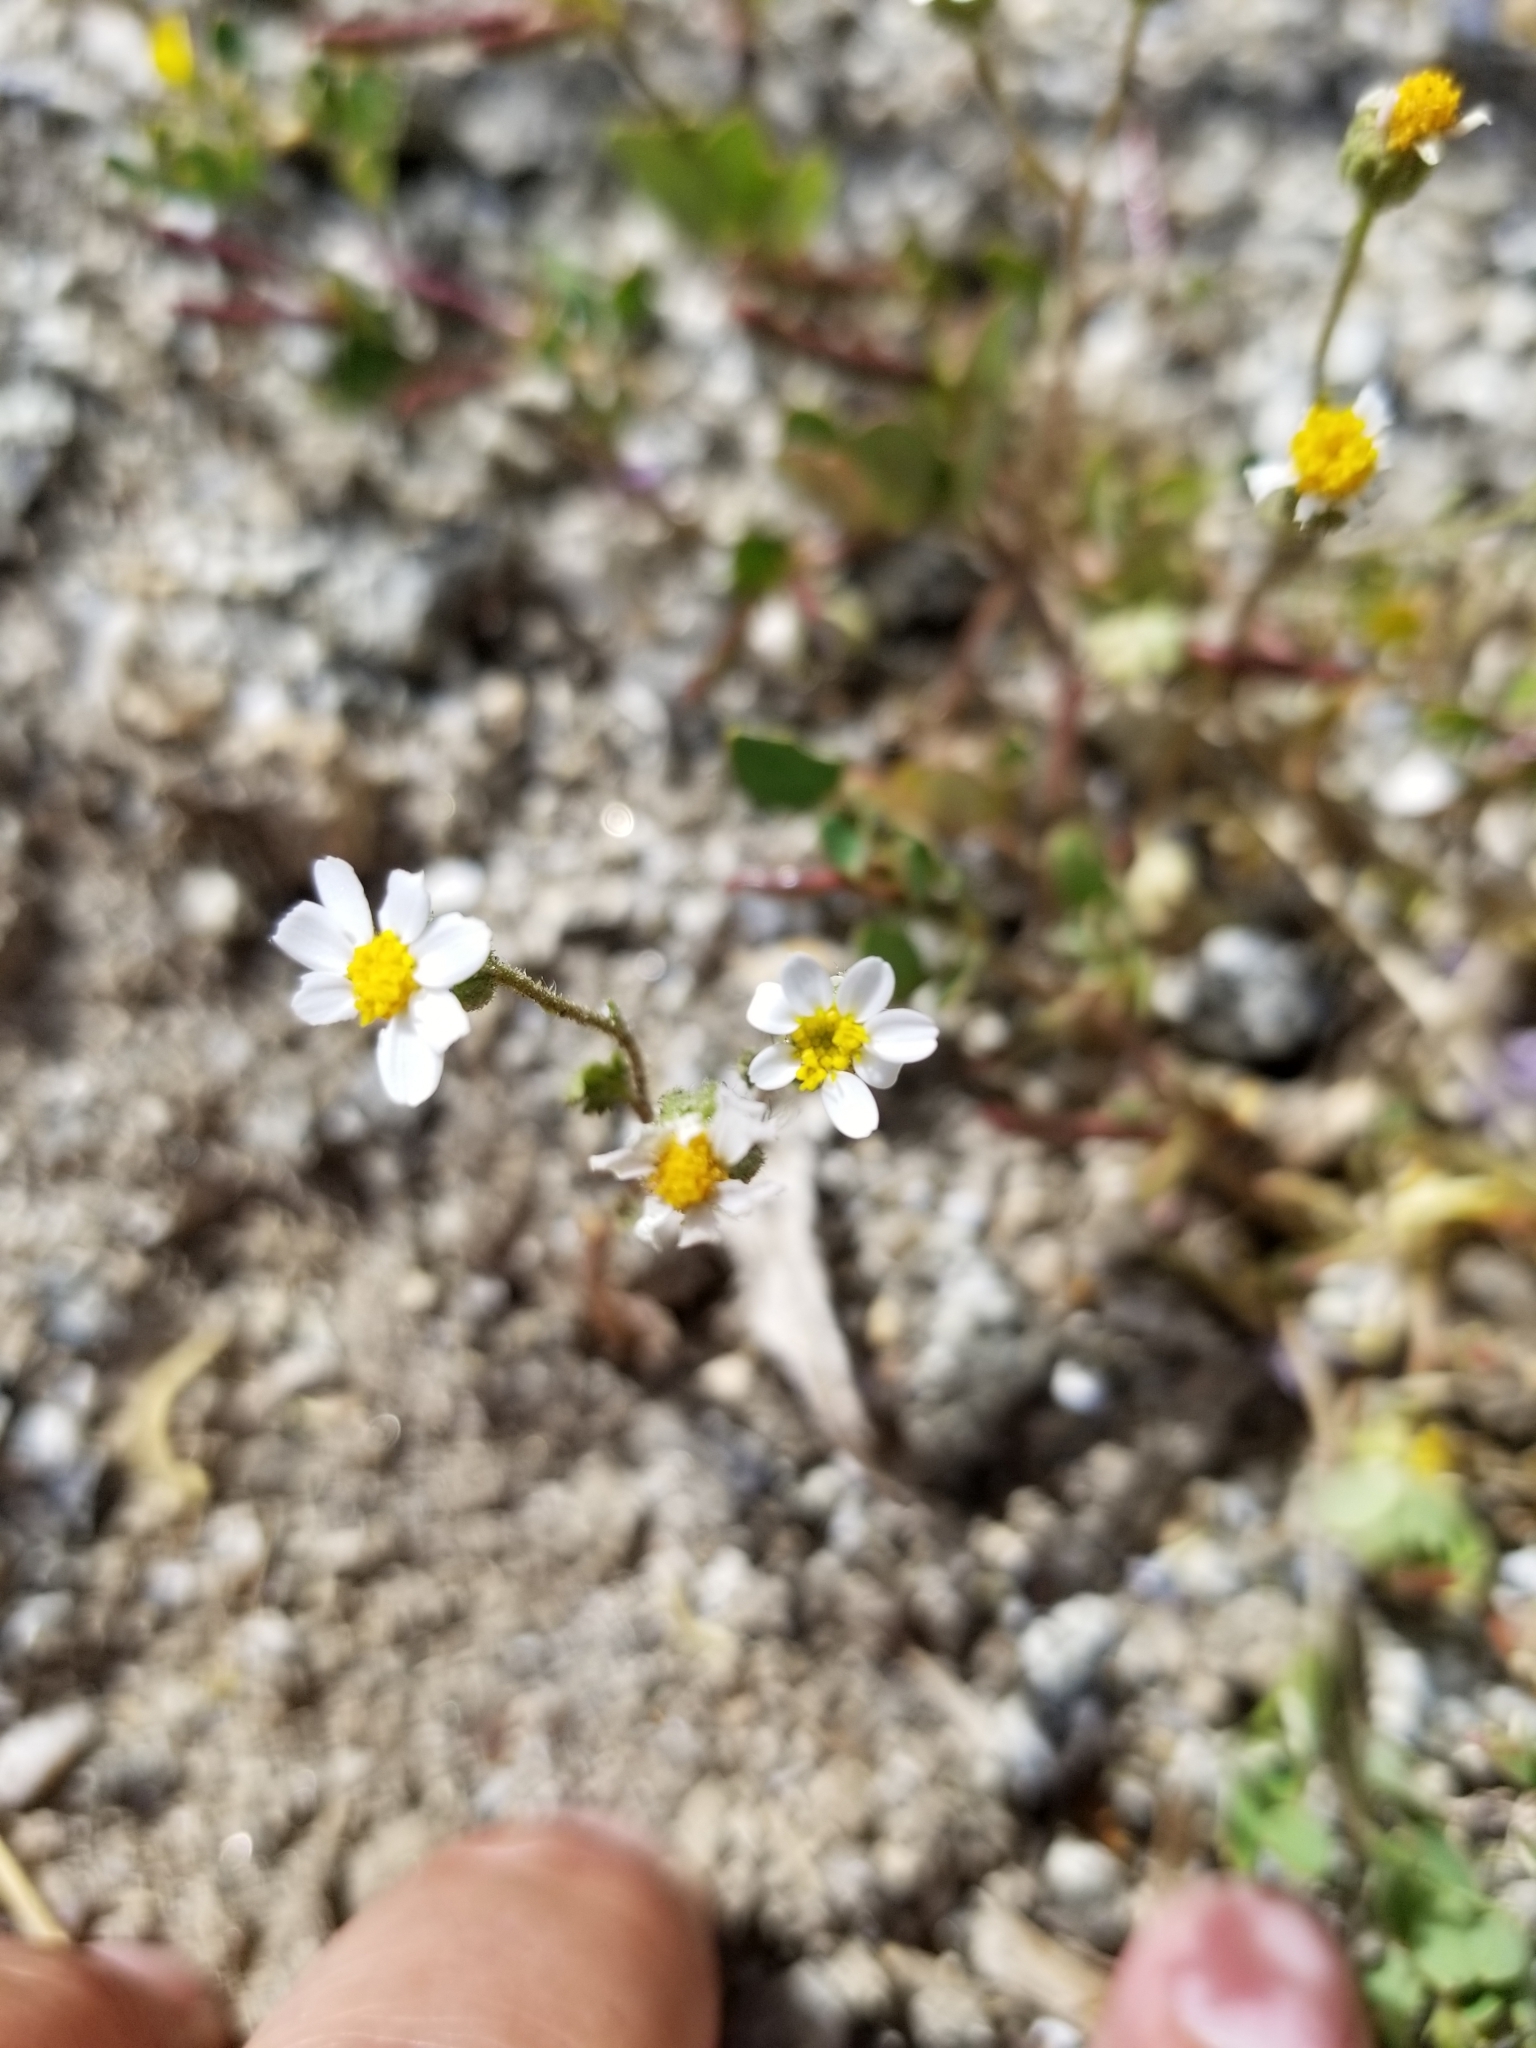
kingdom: Plantae
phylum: Tracheophyta
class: Magnoliopsida
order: Asterales
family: Asteraceae
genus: Laphamia
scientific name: Laphamia emoryi
